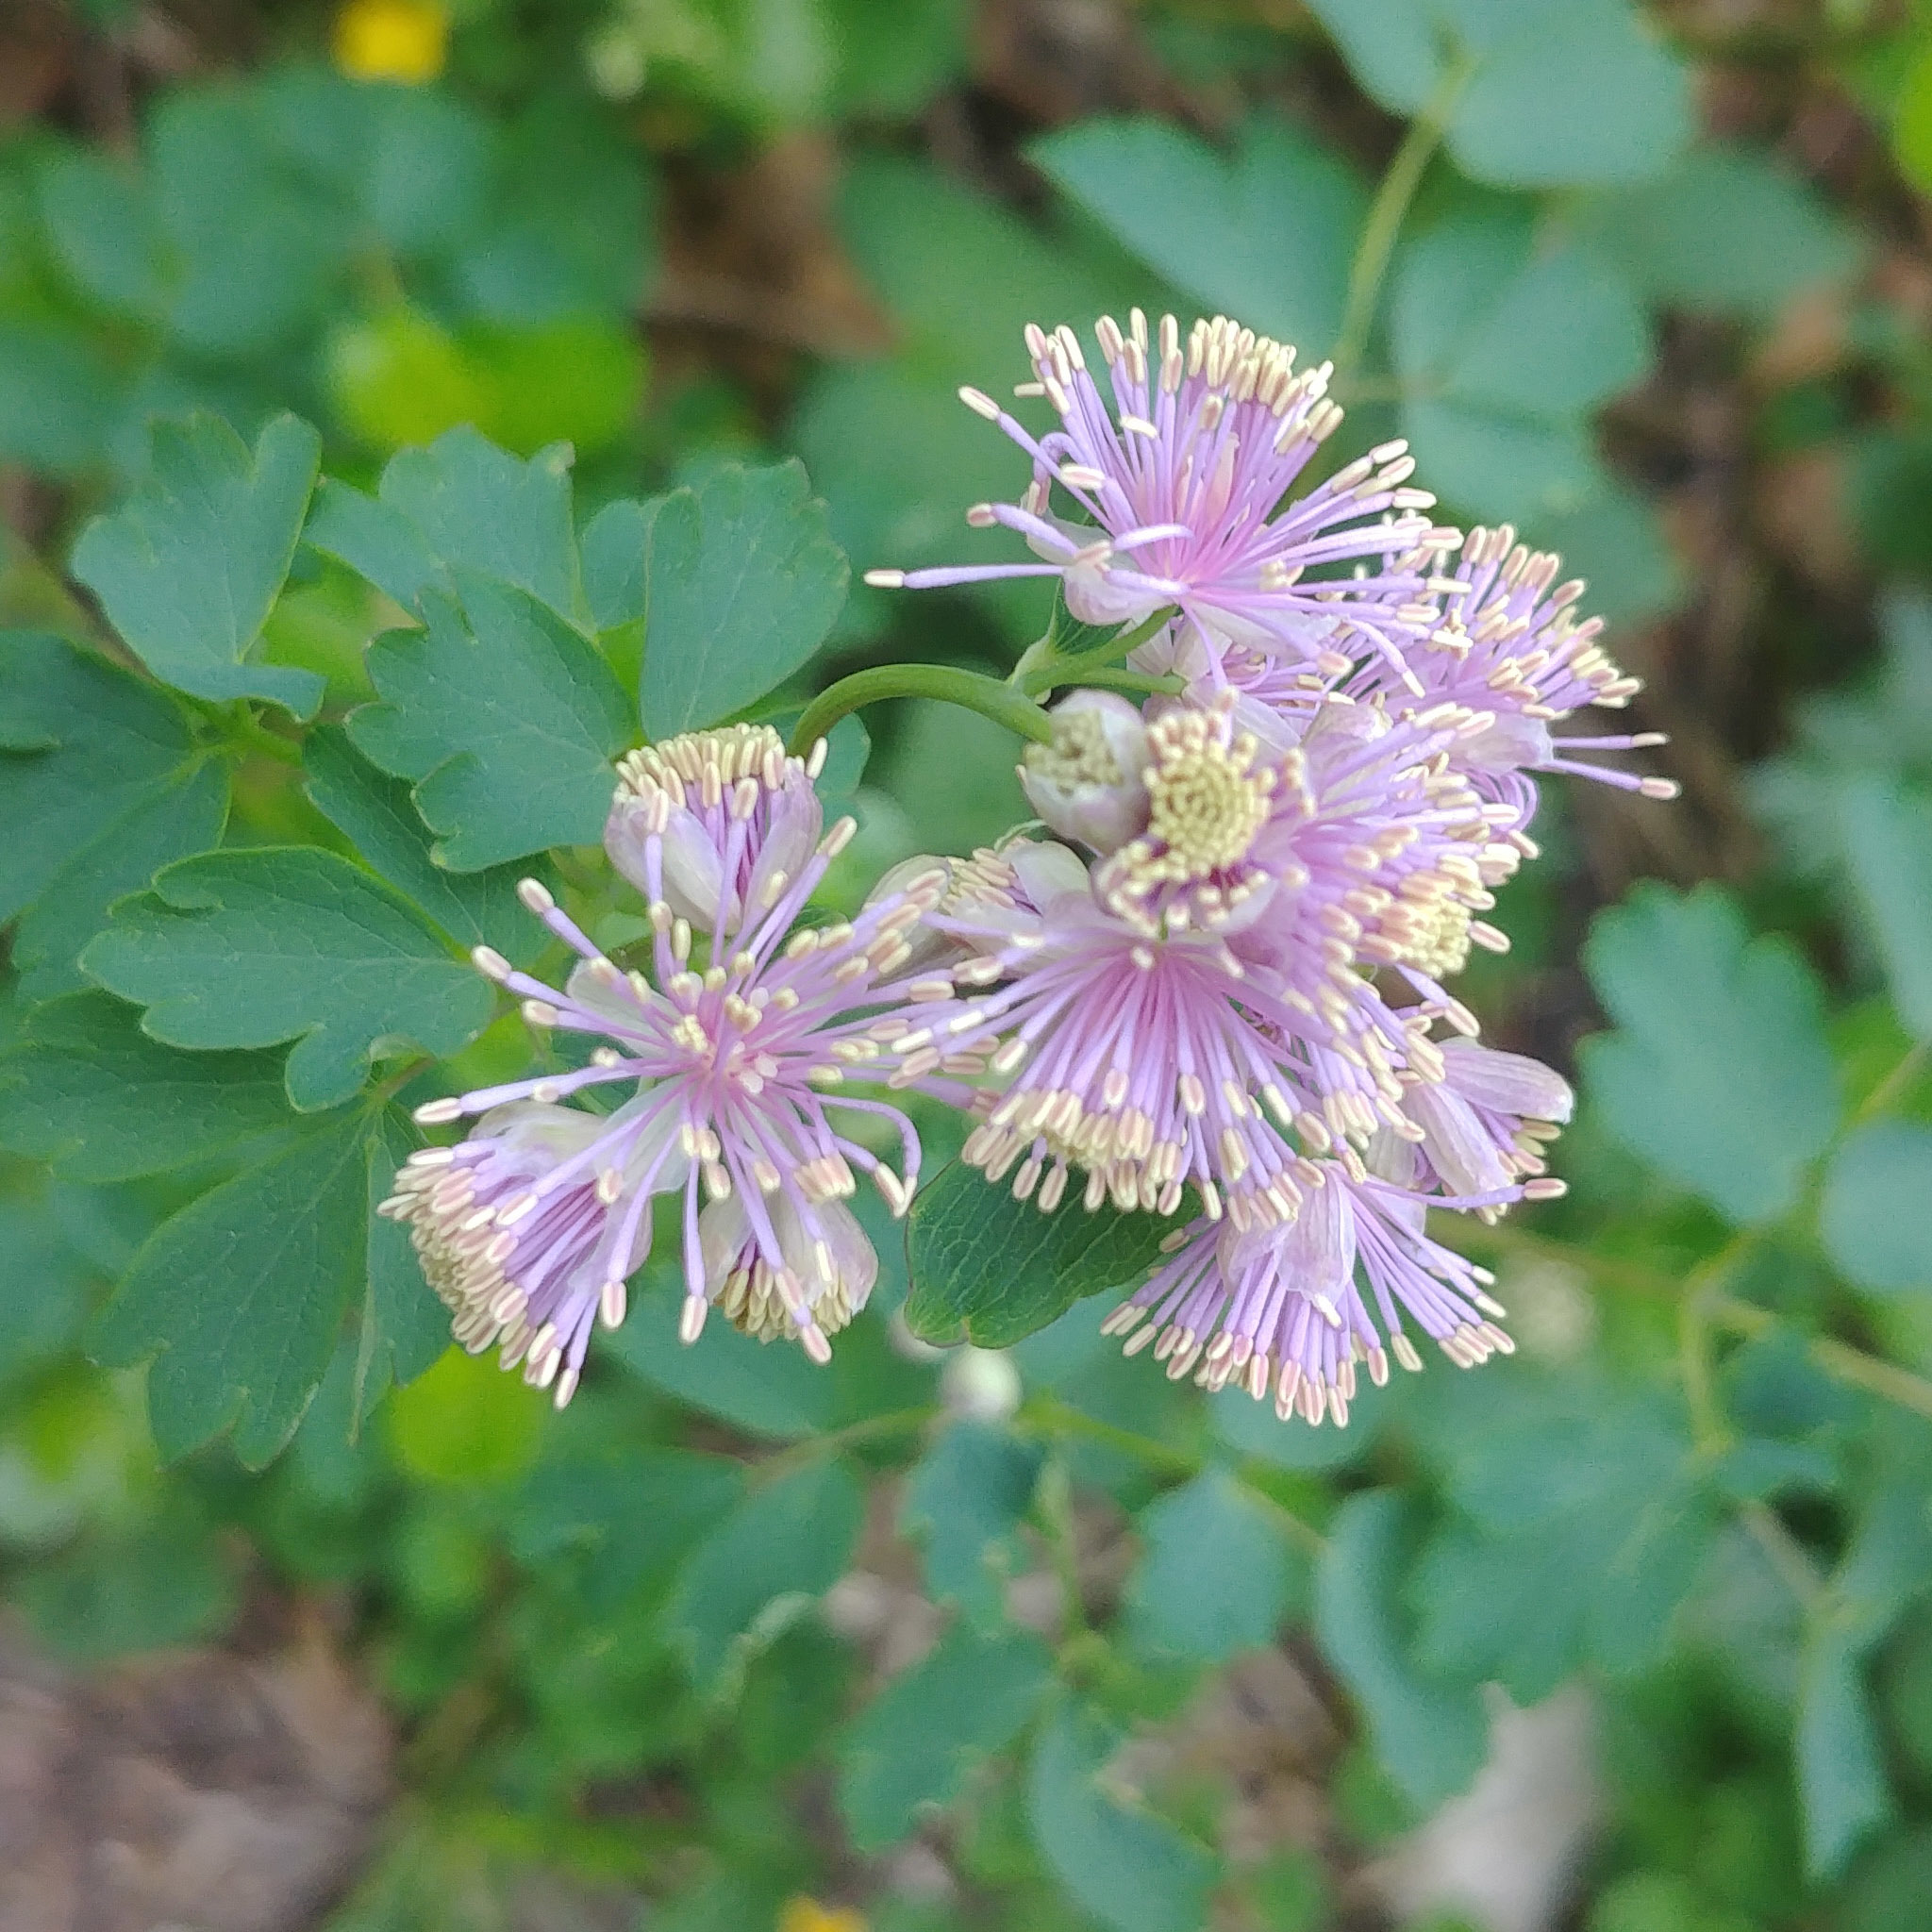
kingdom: Plantae
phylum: Tracheophyta
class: Magnoliopsida
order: Ranunculales
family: Ranunculaceae
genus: Thalictrum
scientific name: Thalictrum aquilegiifolium
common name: French meadow-rue
